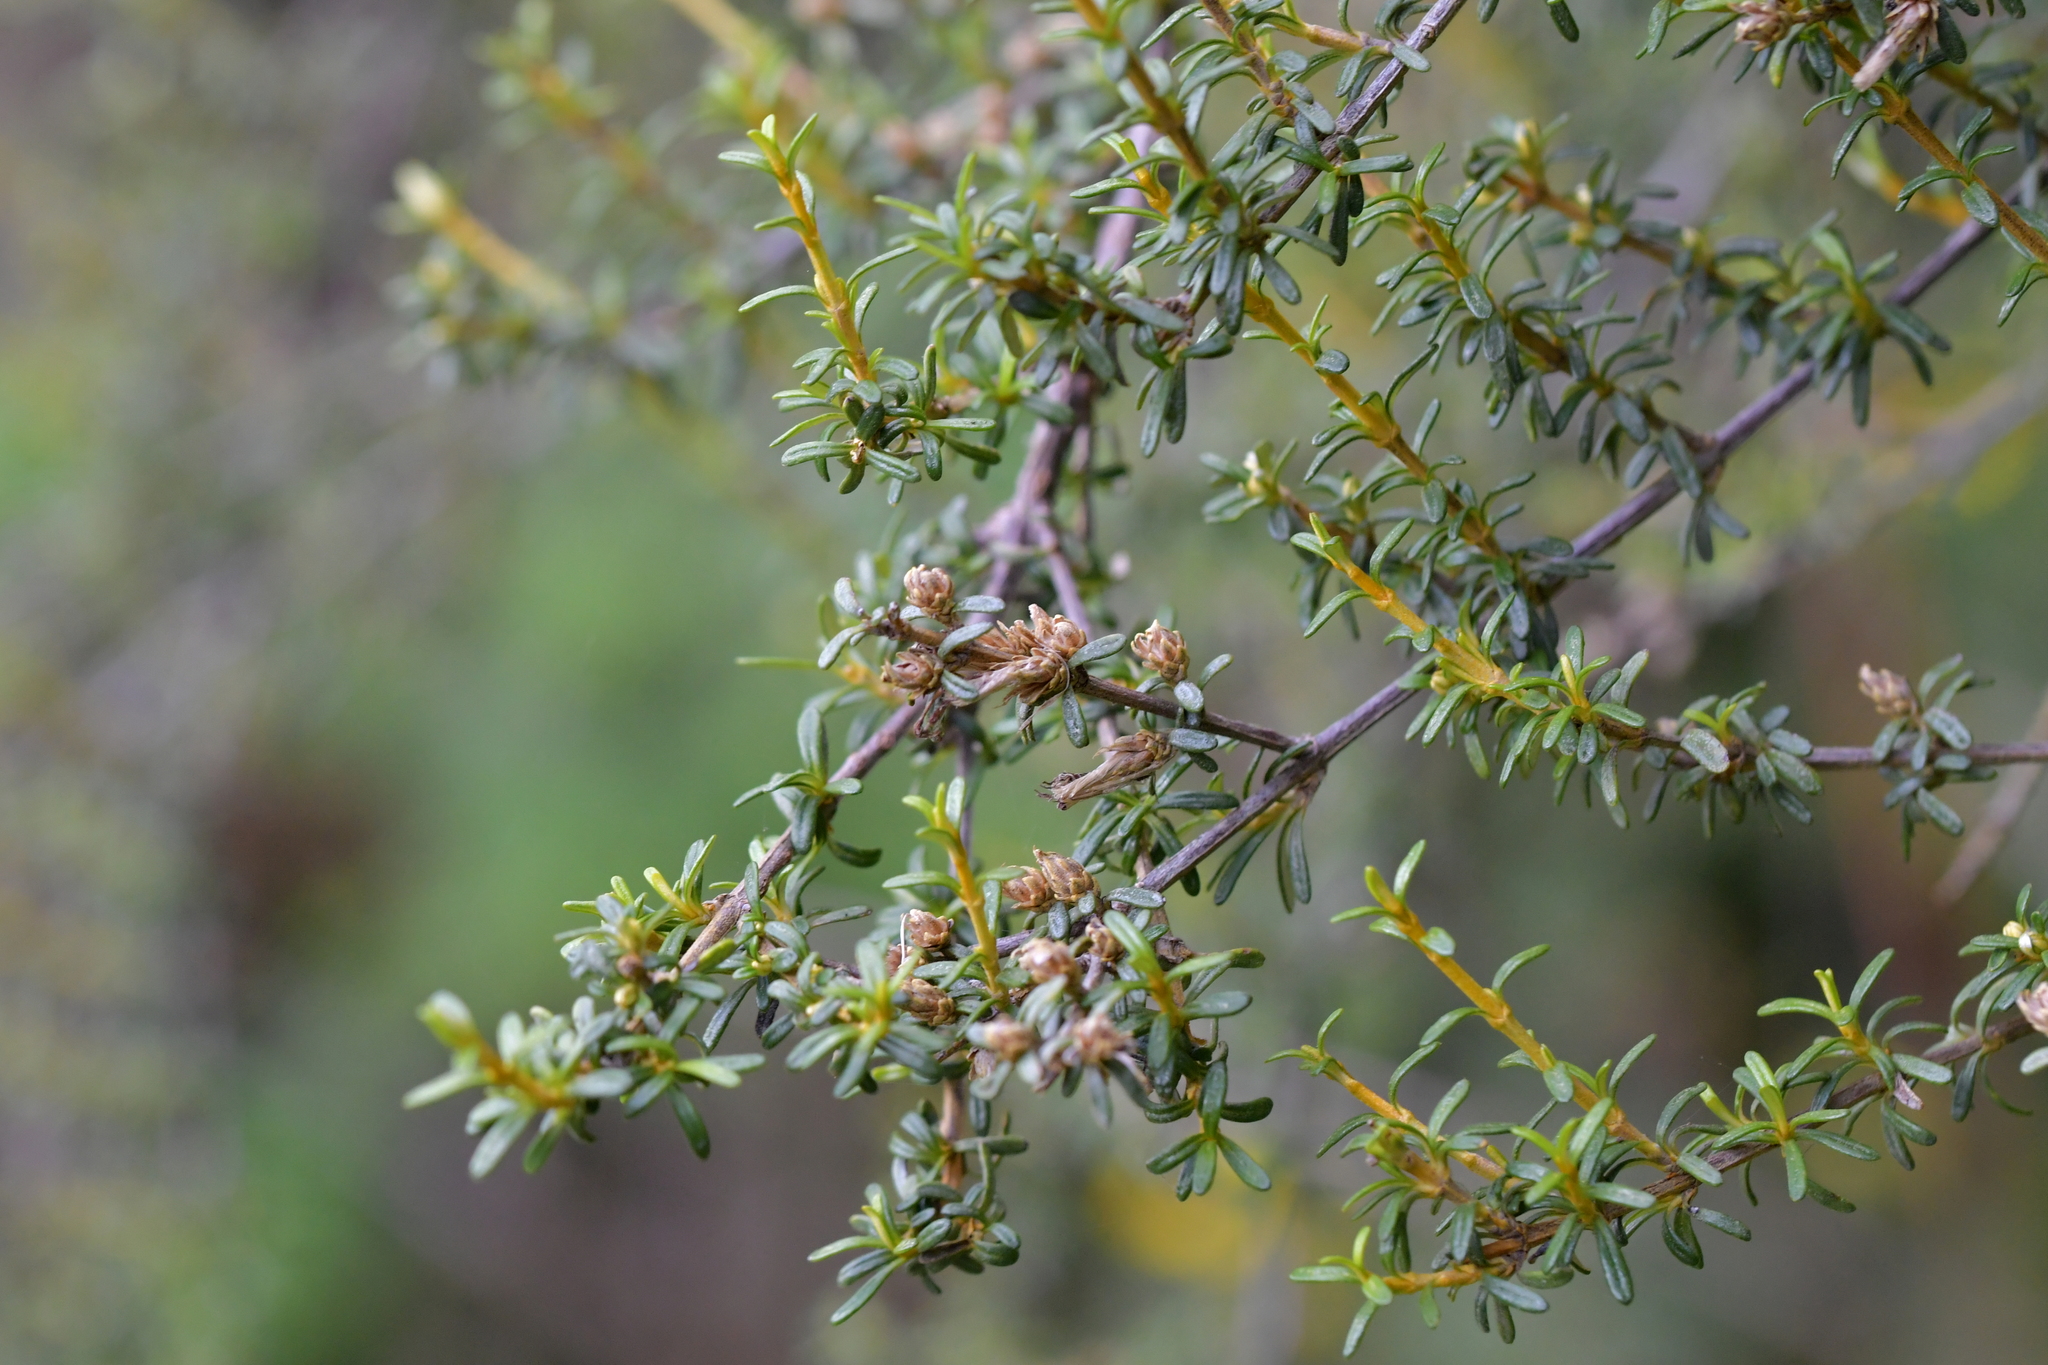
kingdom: Plantae
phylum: Tracheophyta
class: Magnoliopsida
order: Asterales
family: Asteraceae
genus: Olearia
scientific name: Olearia solandri
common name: Coastal daisybush
